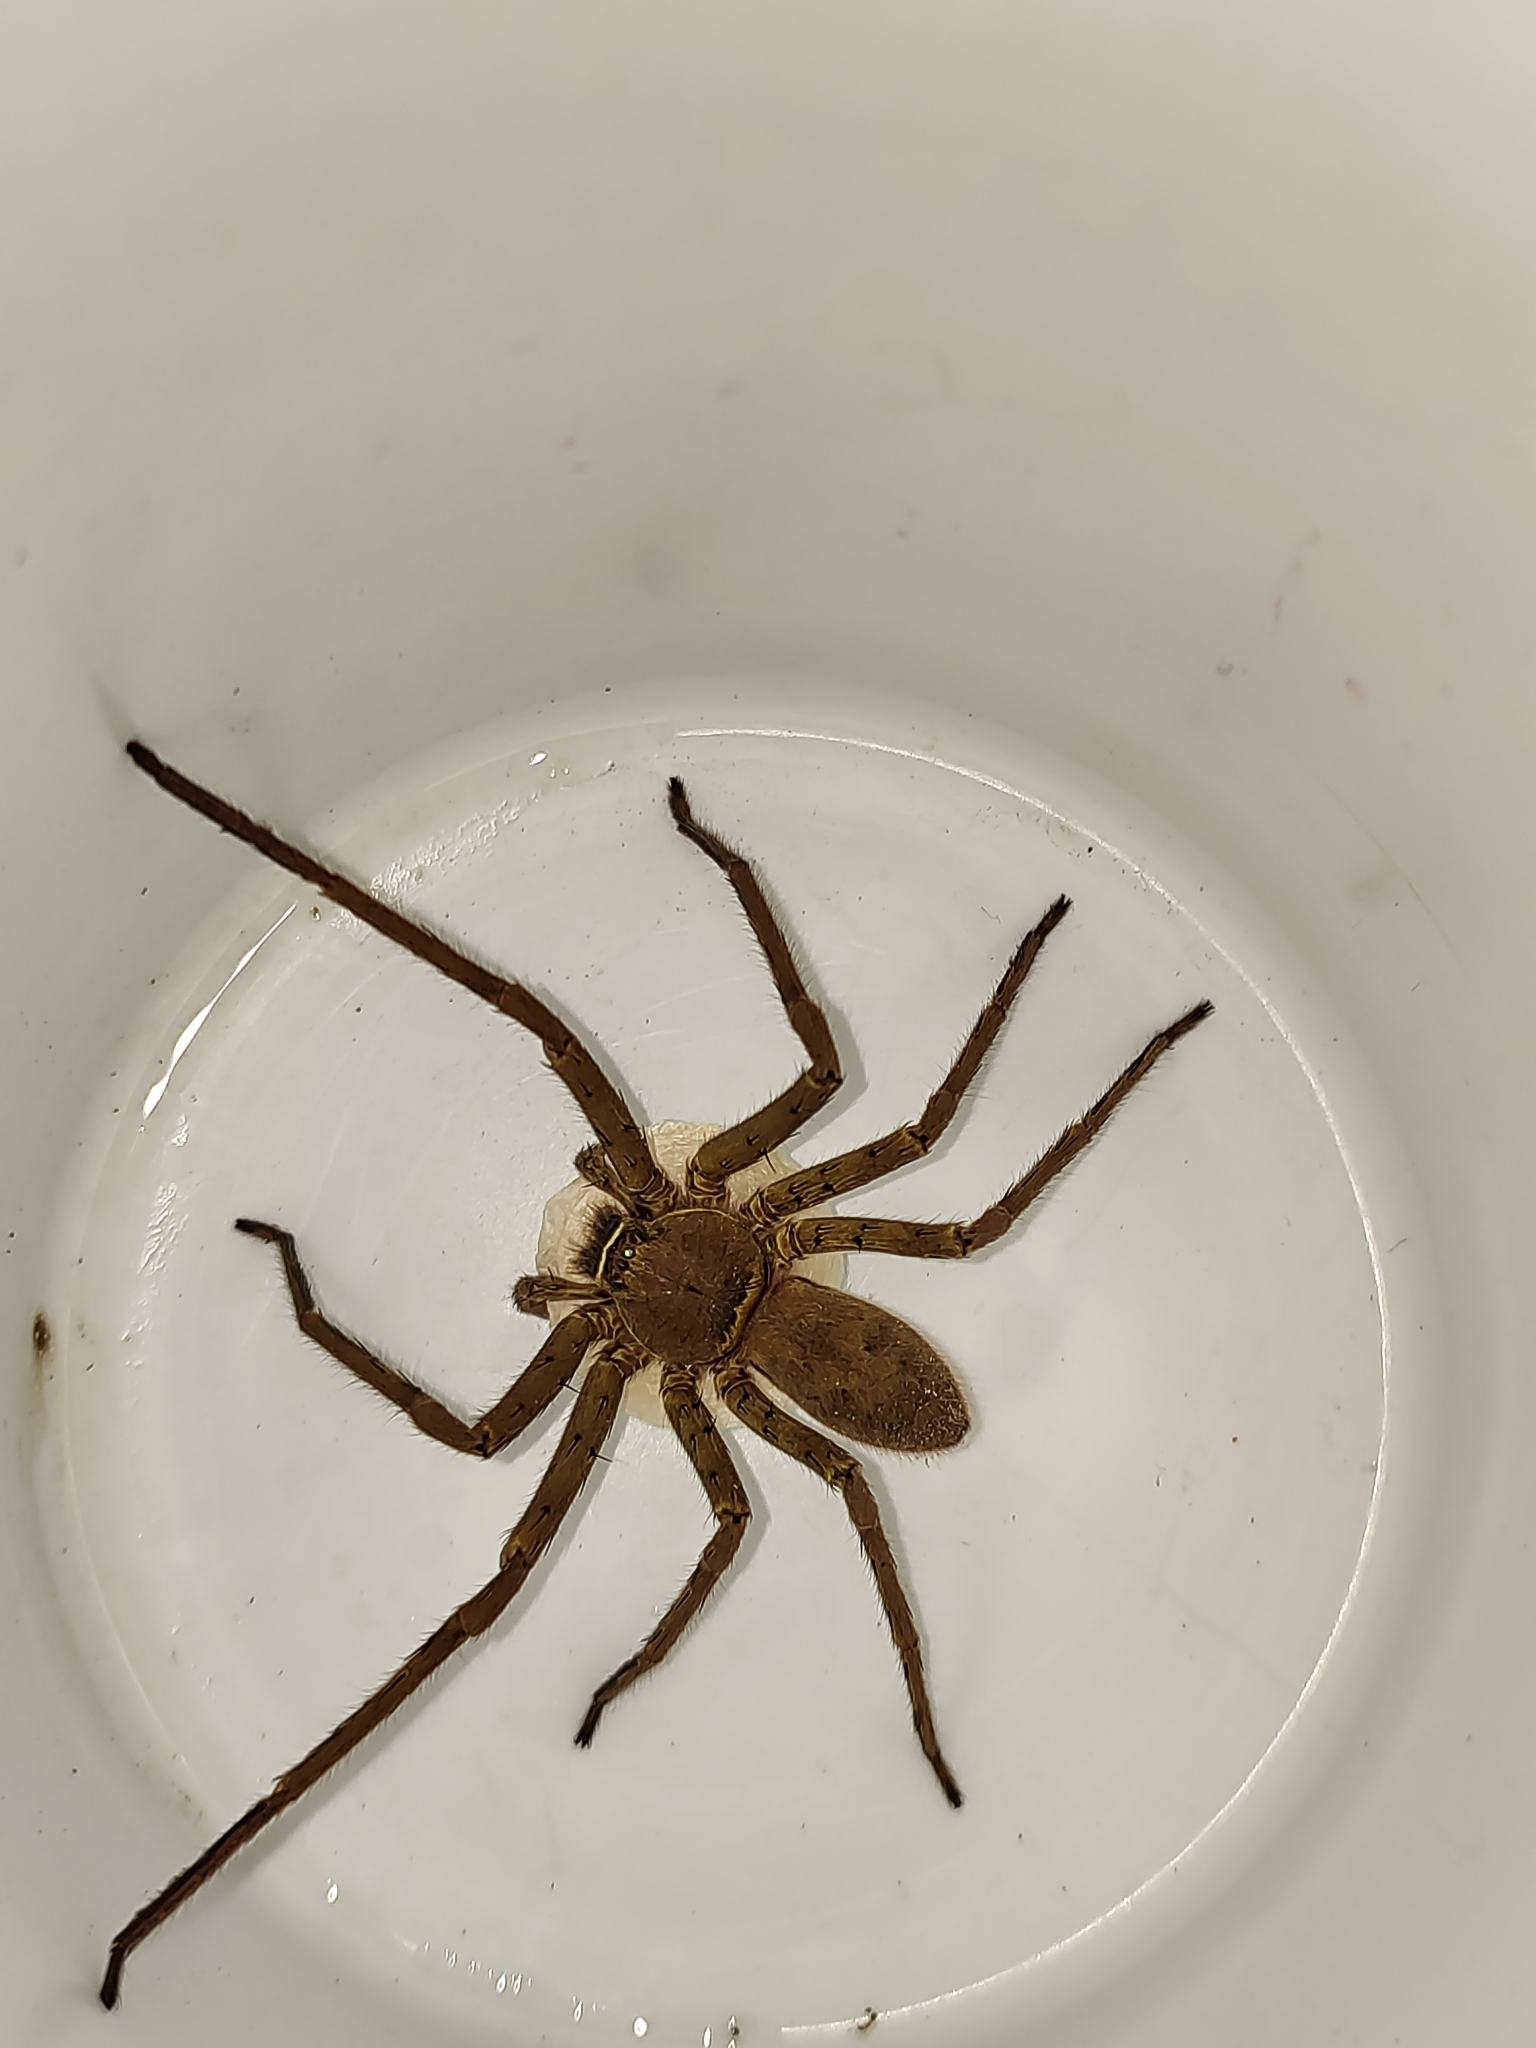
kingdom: Animalia
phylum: Arthropoda
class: Arachnida
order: Araneae
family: Sparassidae
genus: Heteropoda
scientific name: Heteropoda venatoria
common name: Huntsman spider
